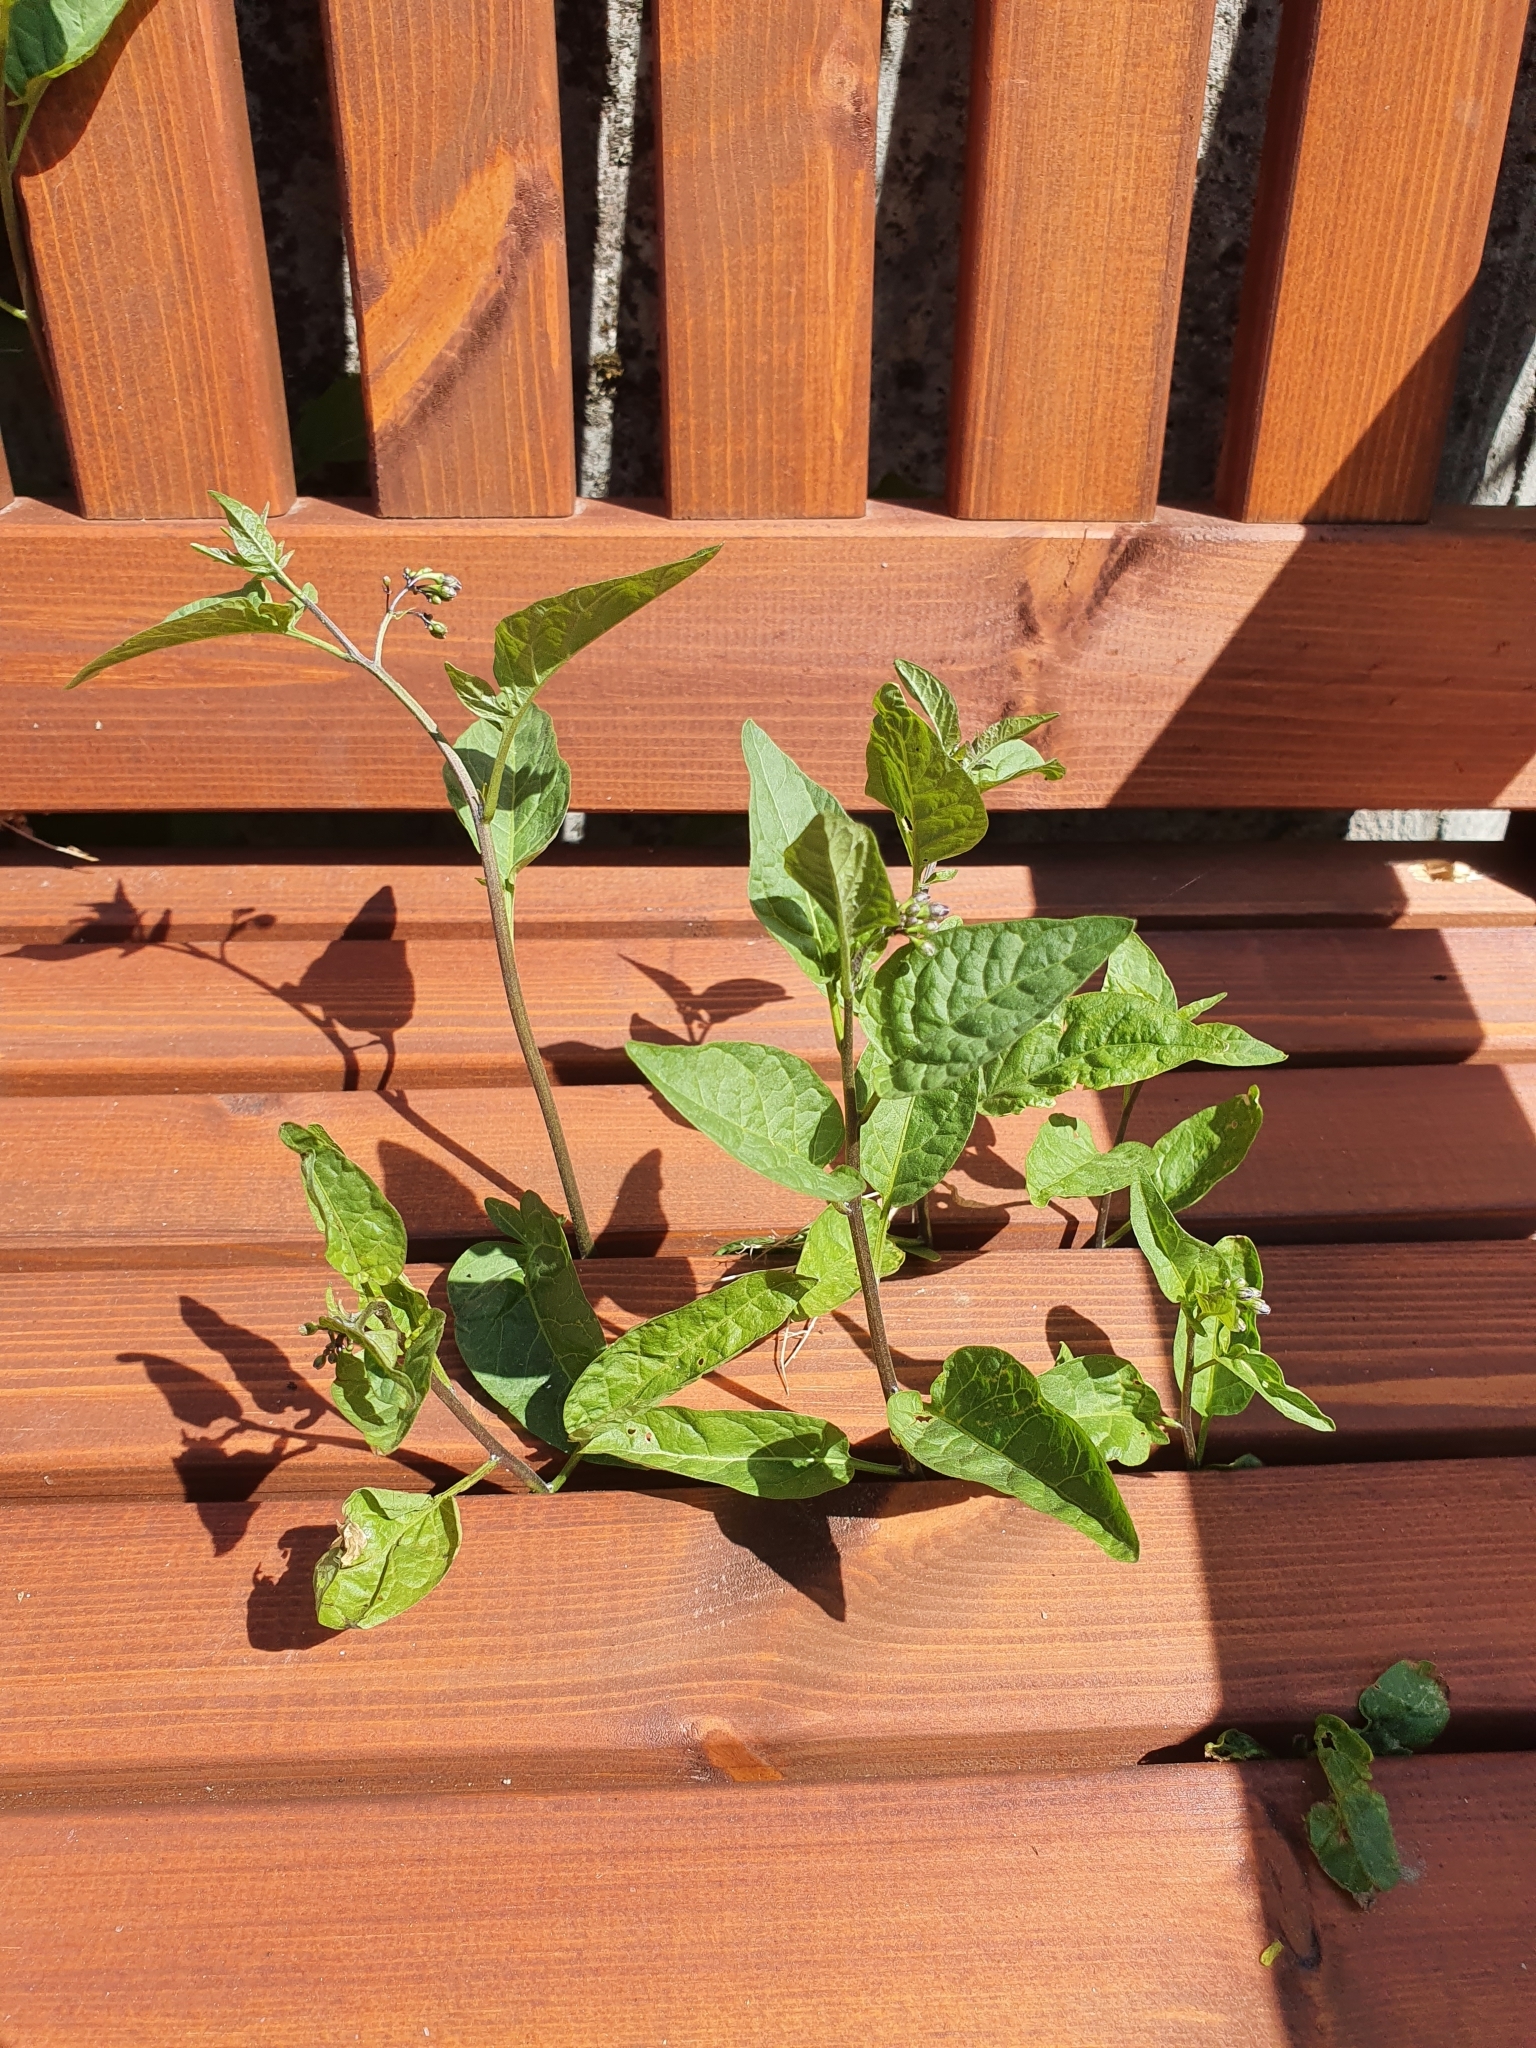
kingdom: Plantae
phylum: Tracheophyta
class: Magnoliopsida
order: Solanales
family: Solanaceae
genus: Solanum
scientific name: Solanum dulcamara
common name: Climbing nightshade
